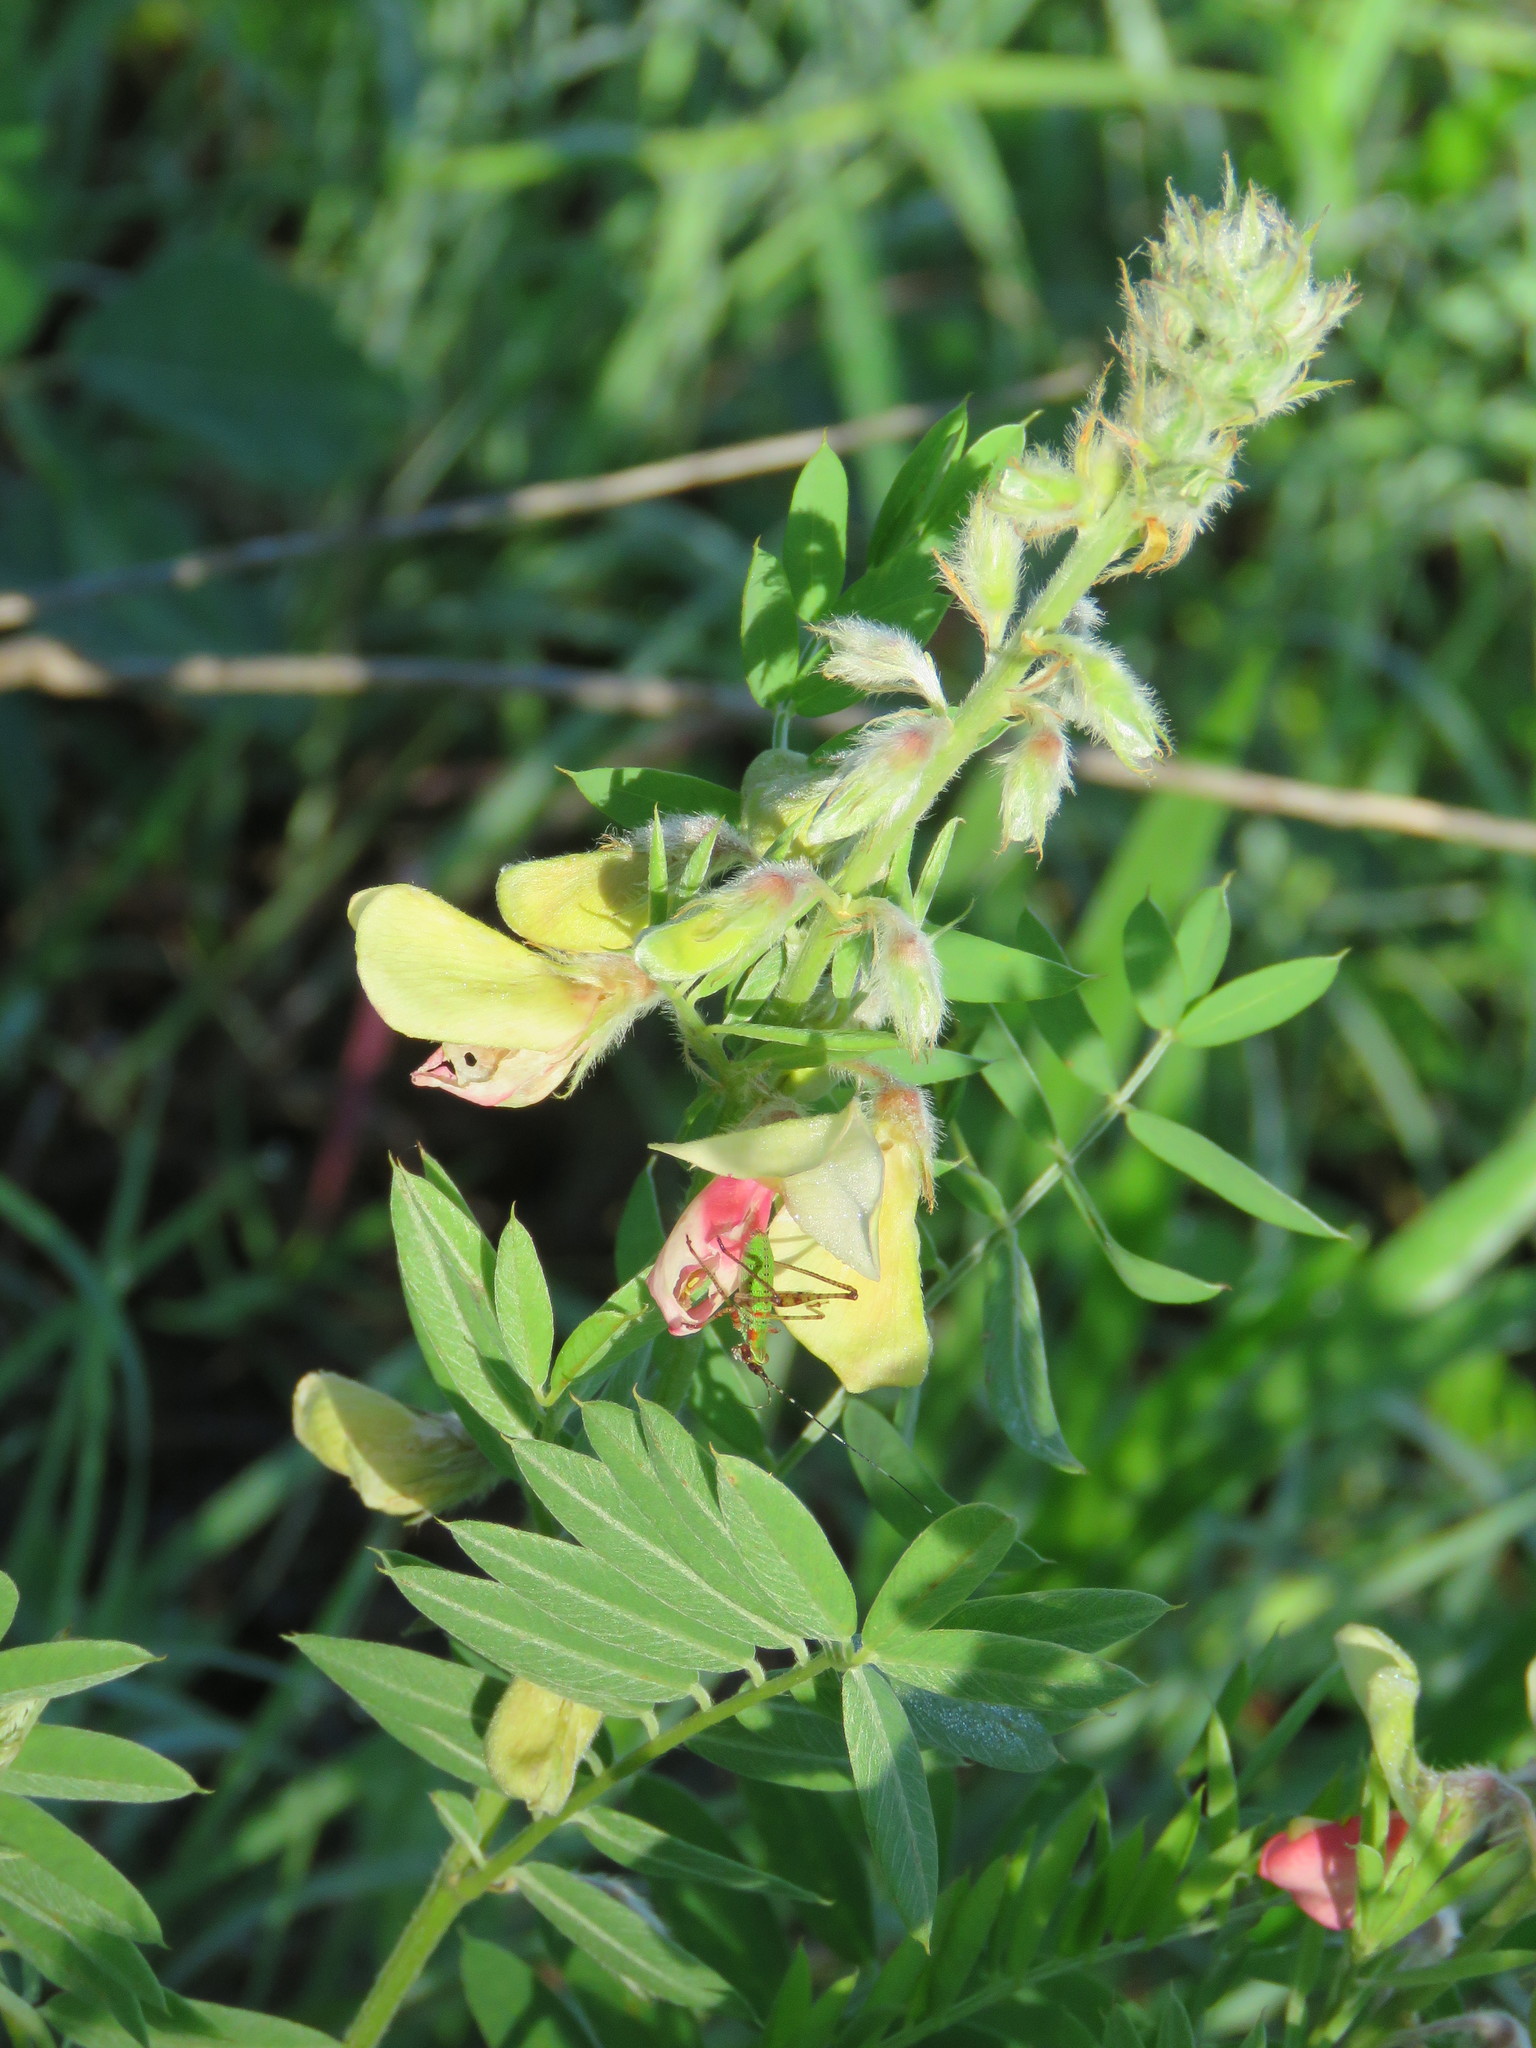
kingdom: Plantae
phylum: Tracheophyta
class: Magnoliopsida
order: Fabales
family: Fabaceae
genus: Tephrosia
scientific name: Tephrosia virginiana
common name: Rabbit-pea
